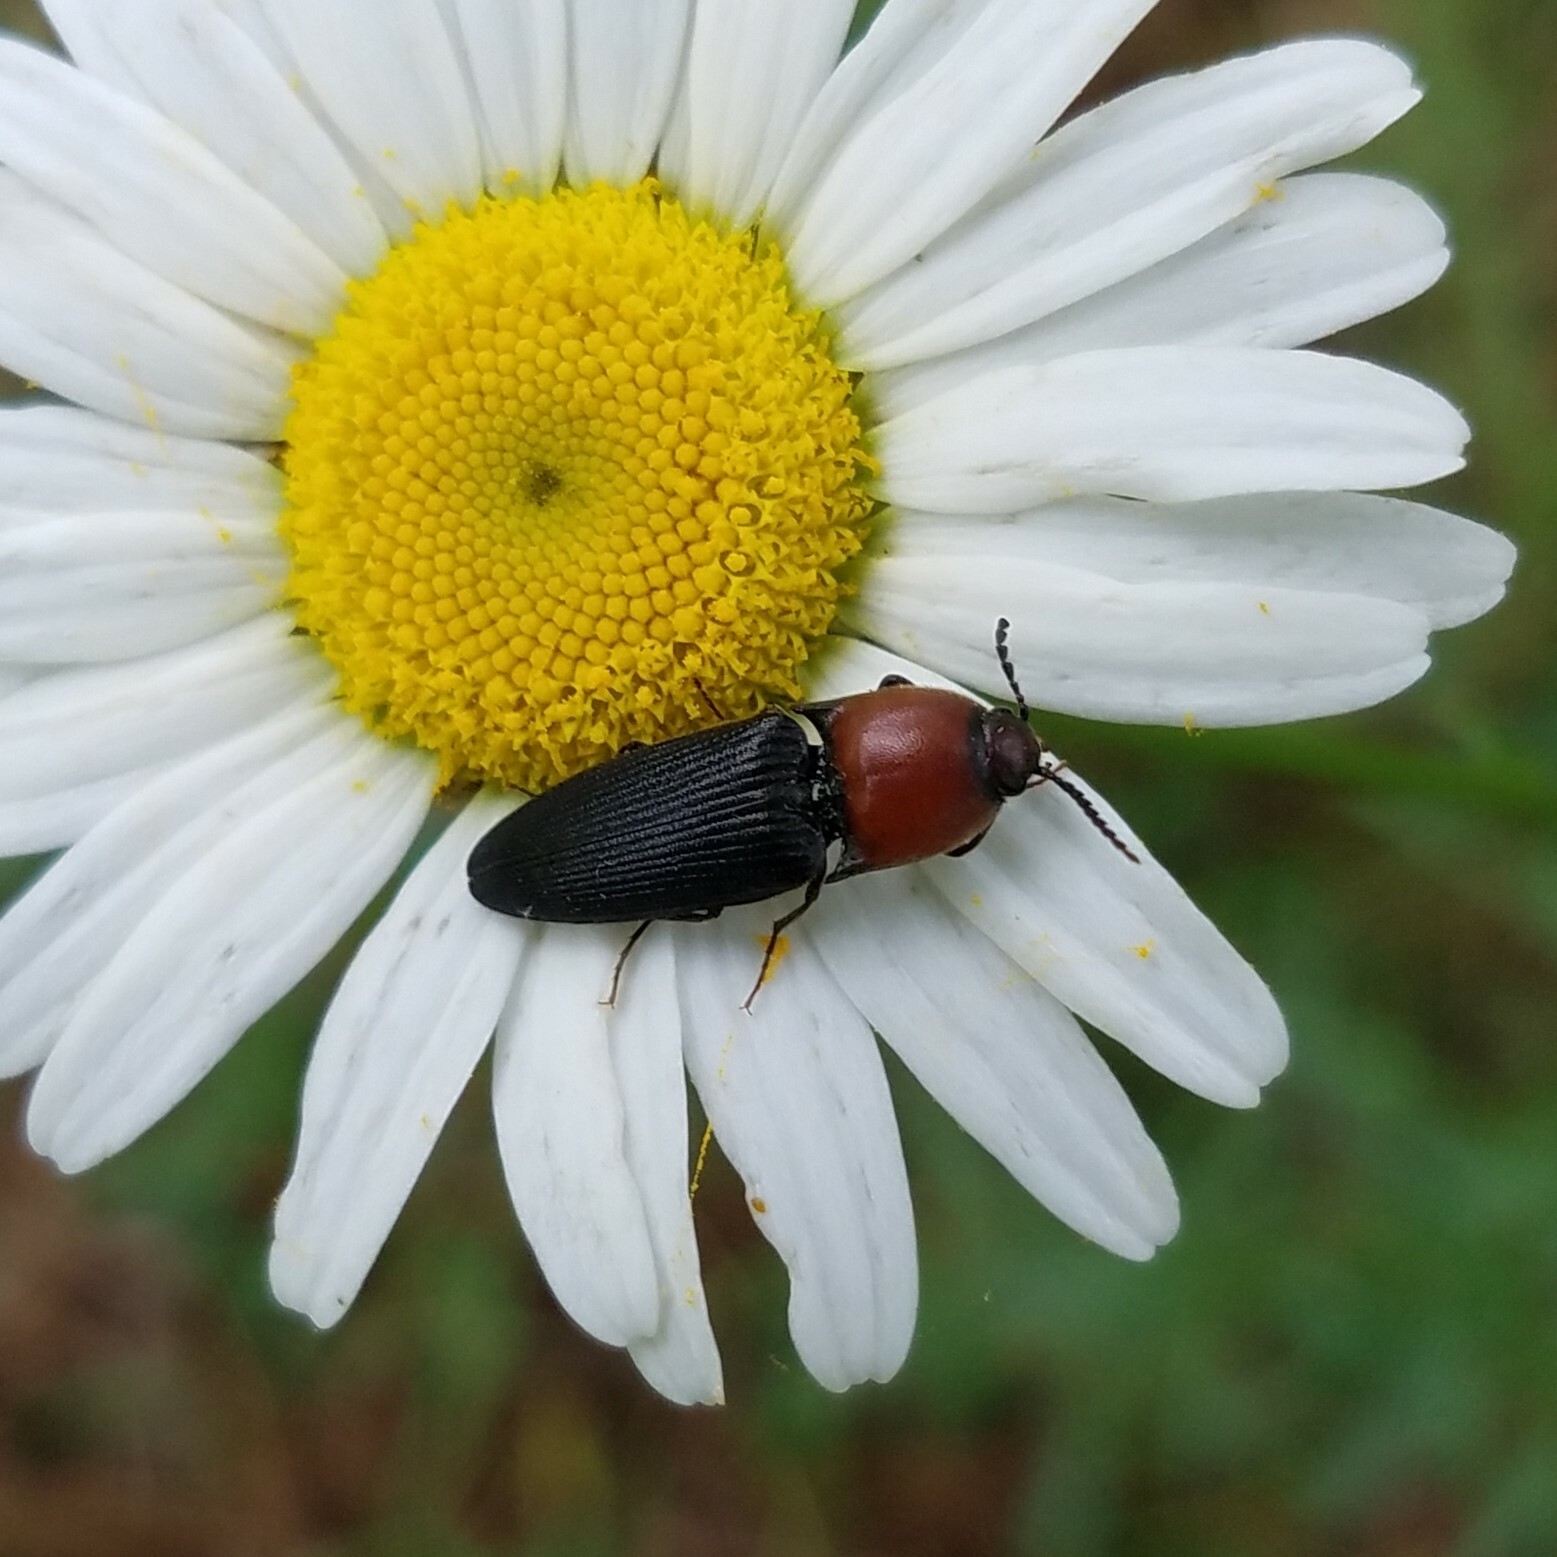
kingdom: Animalia
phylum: Arthropoda
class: Insecta
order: Coleoptera
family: Elateridae
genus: Ampedus
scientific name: Ampedus rubricollis
